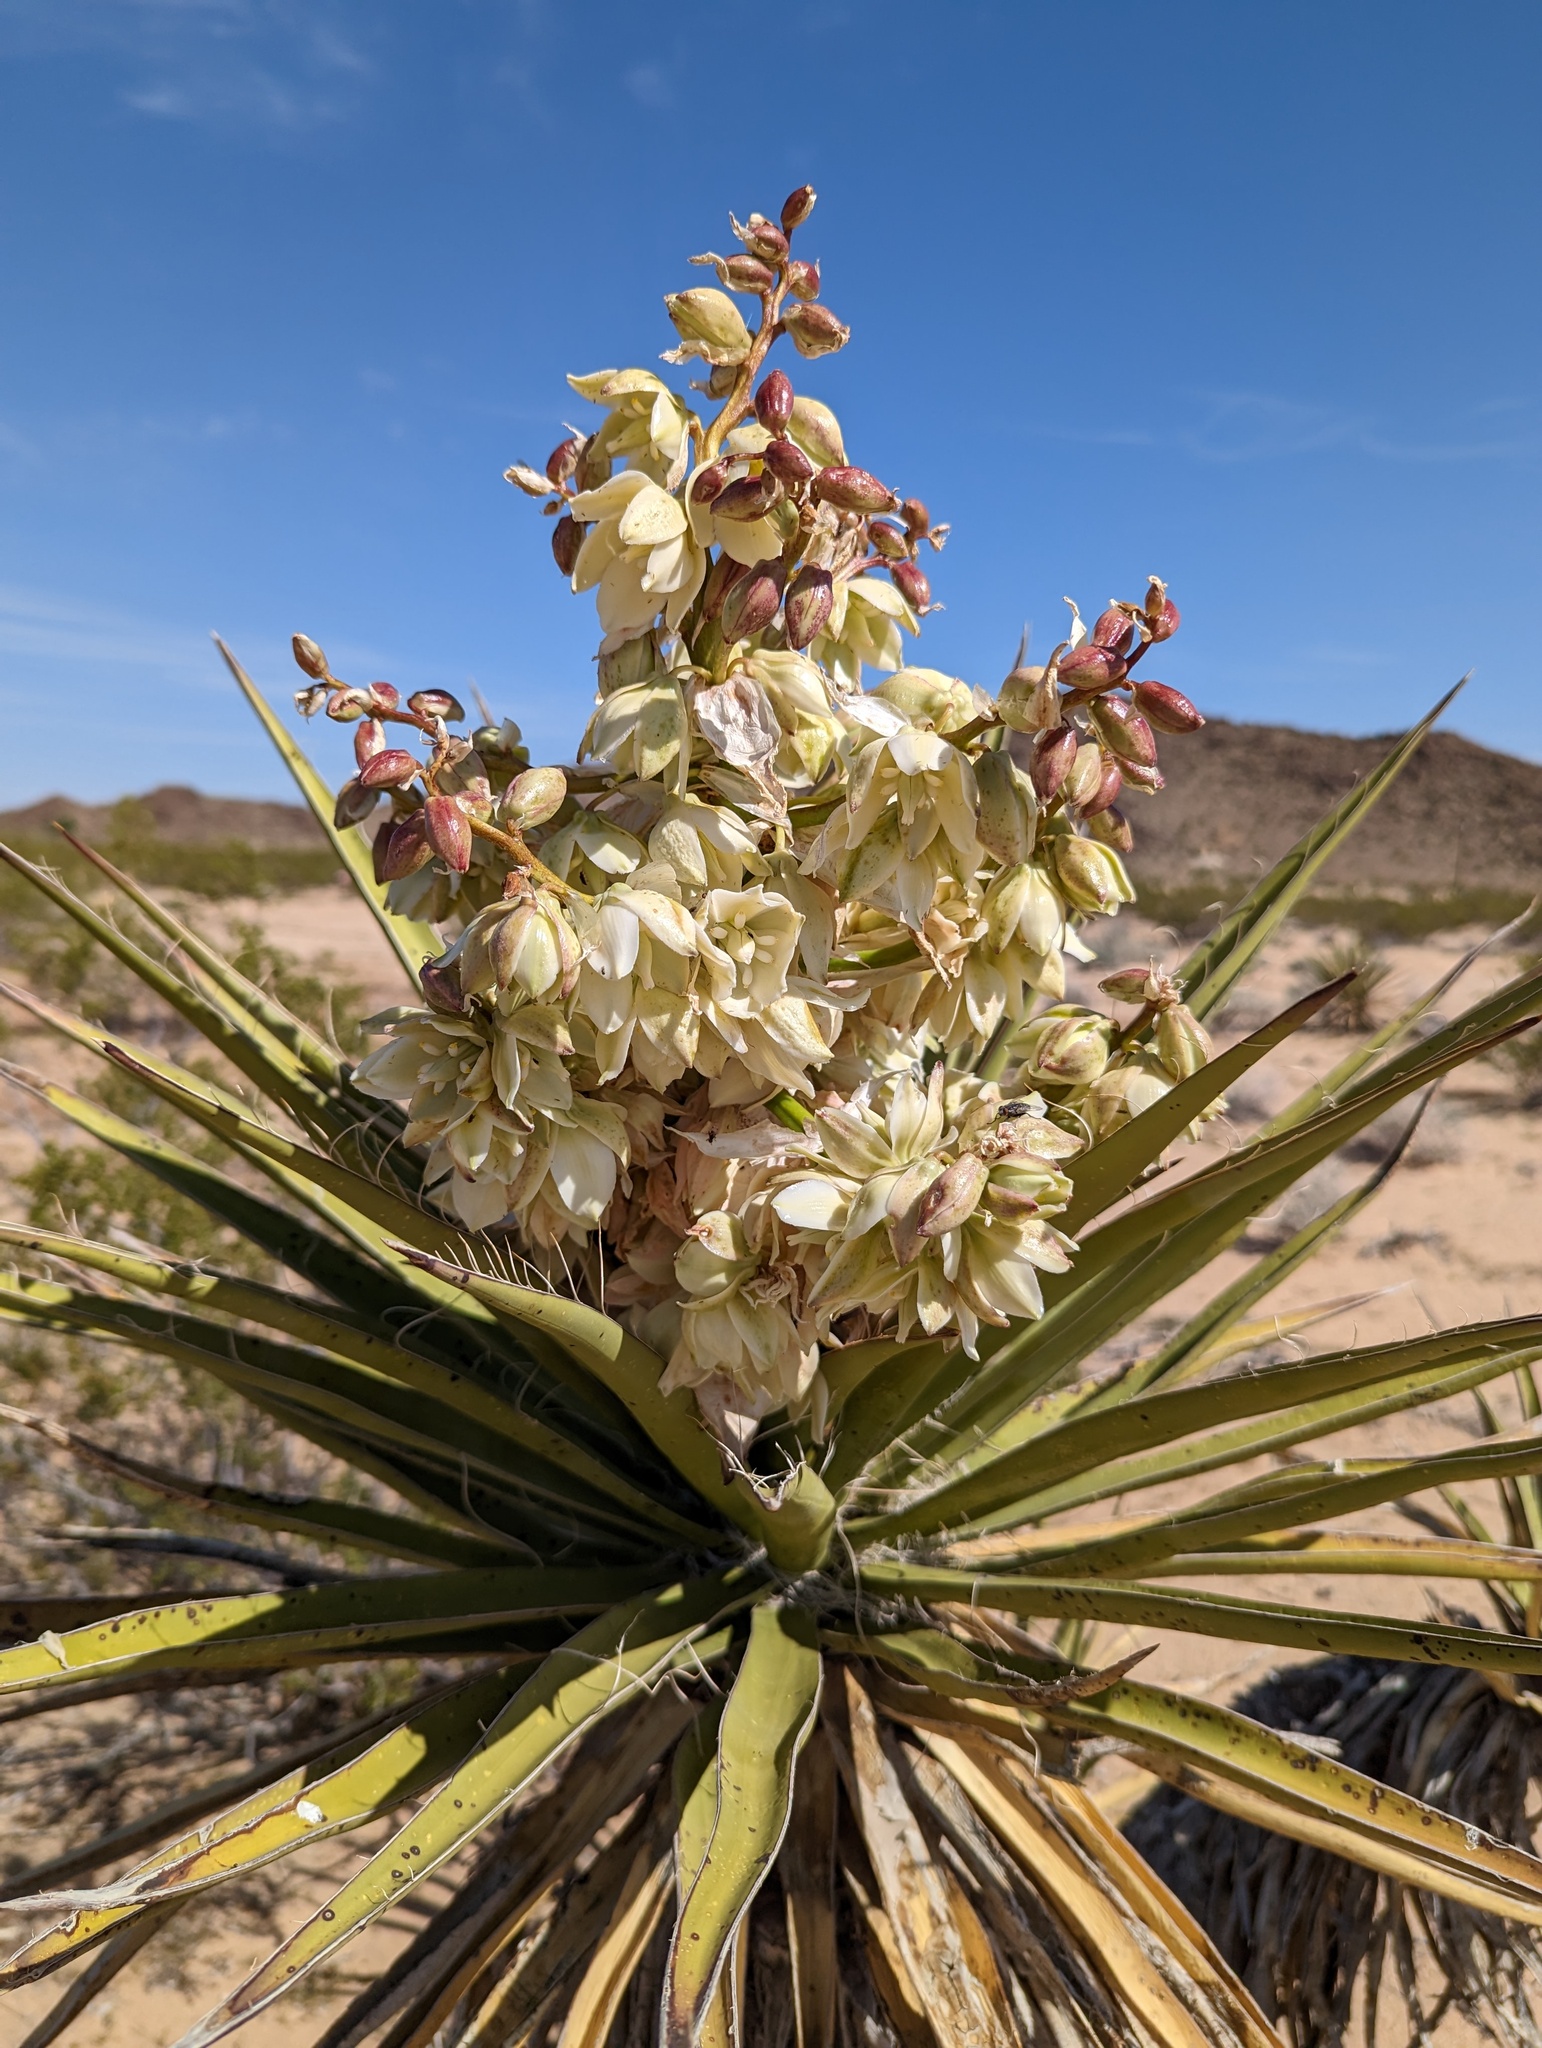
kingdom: Plantae
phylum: Tracheophyta
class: Liliopsida
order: Asparagales
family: Asparagaceae
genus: Yucca
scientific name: Yucca schidigera
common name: Mojave yucca
